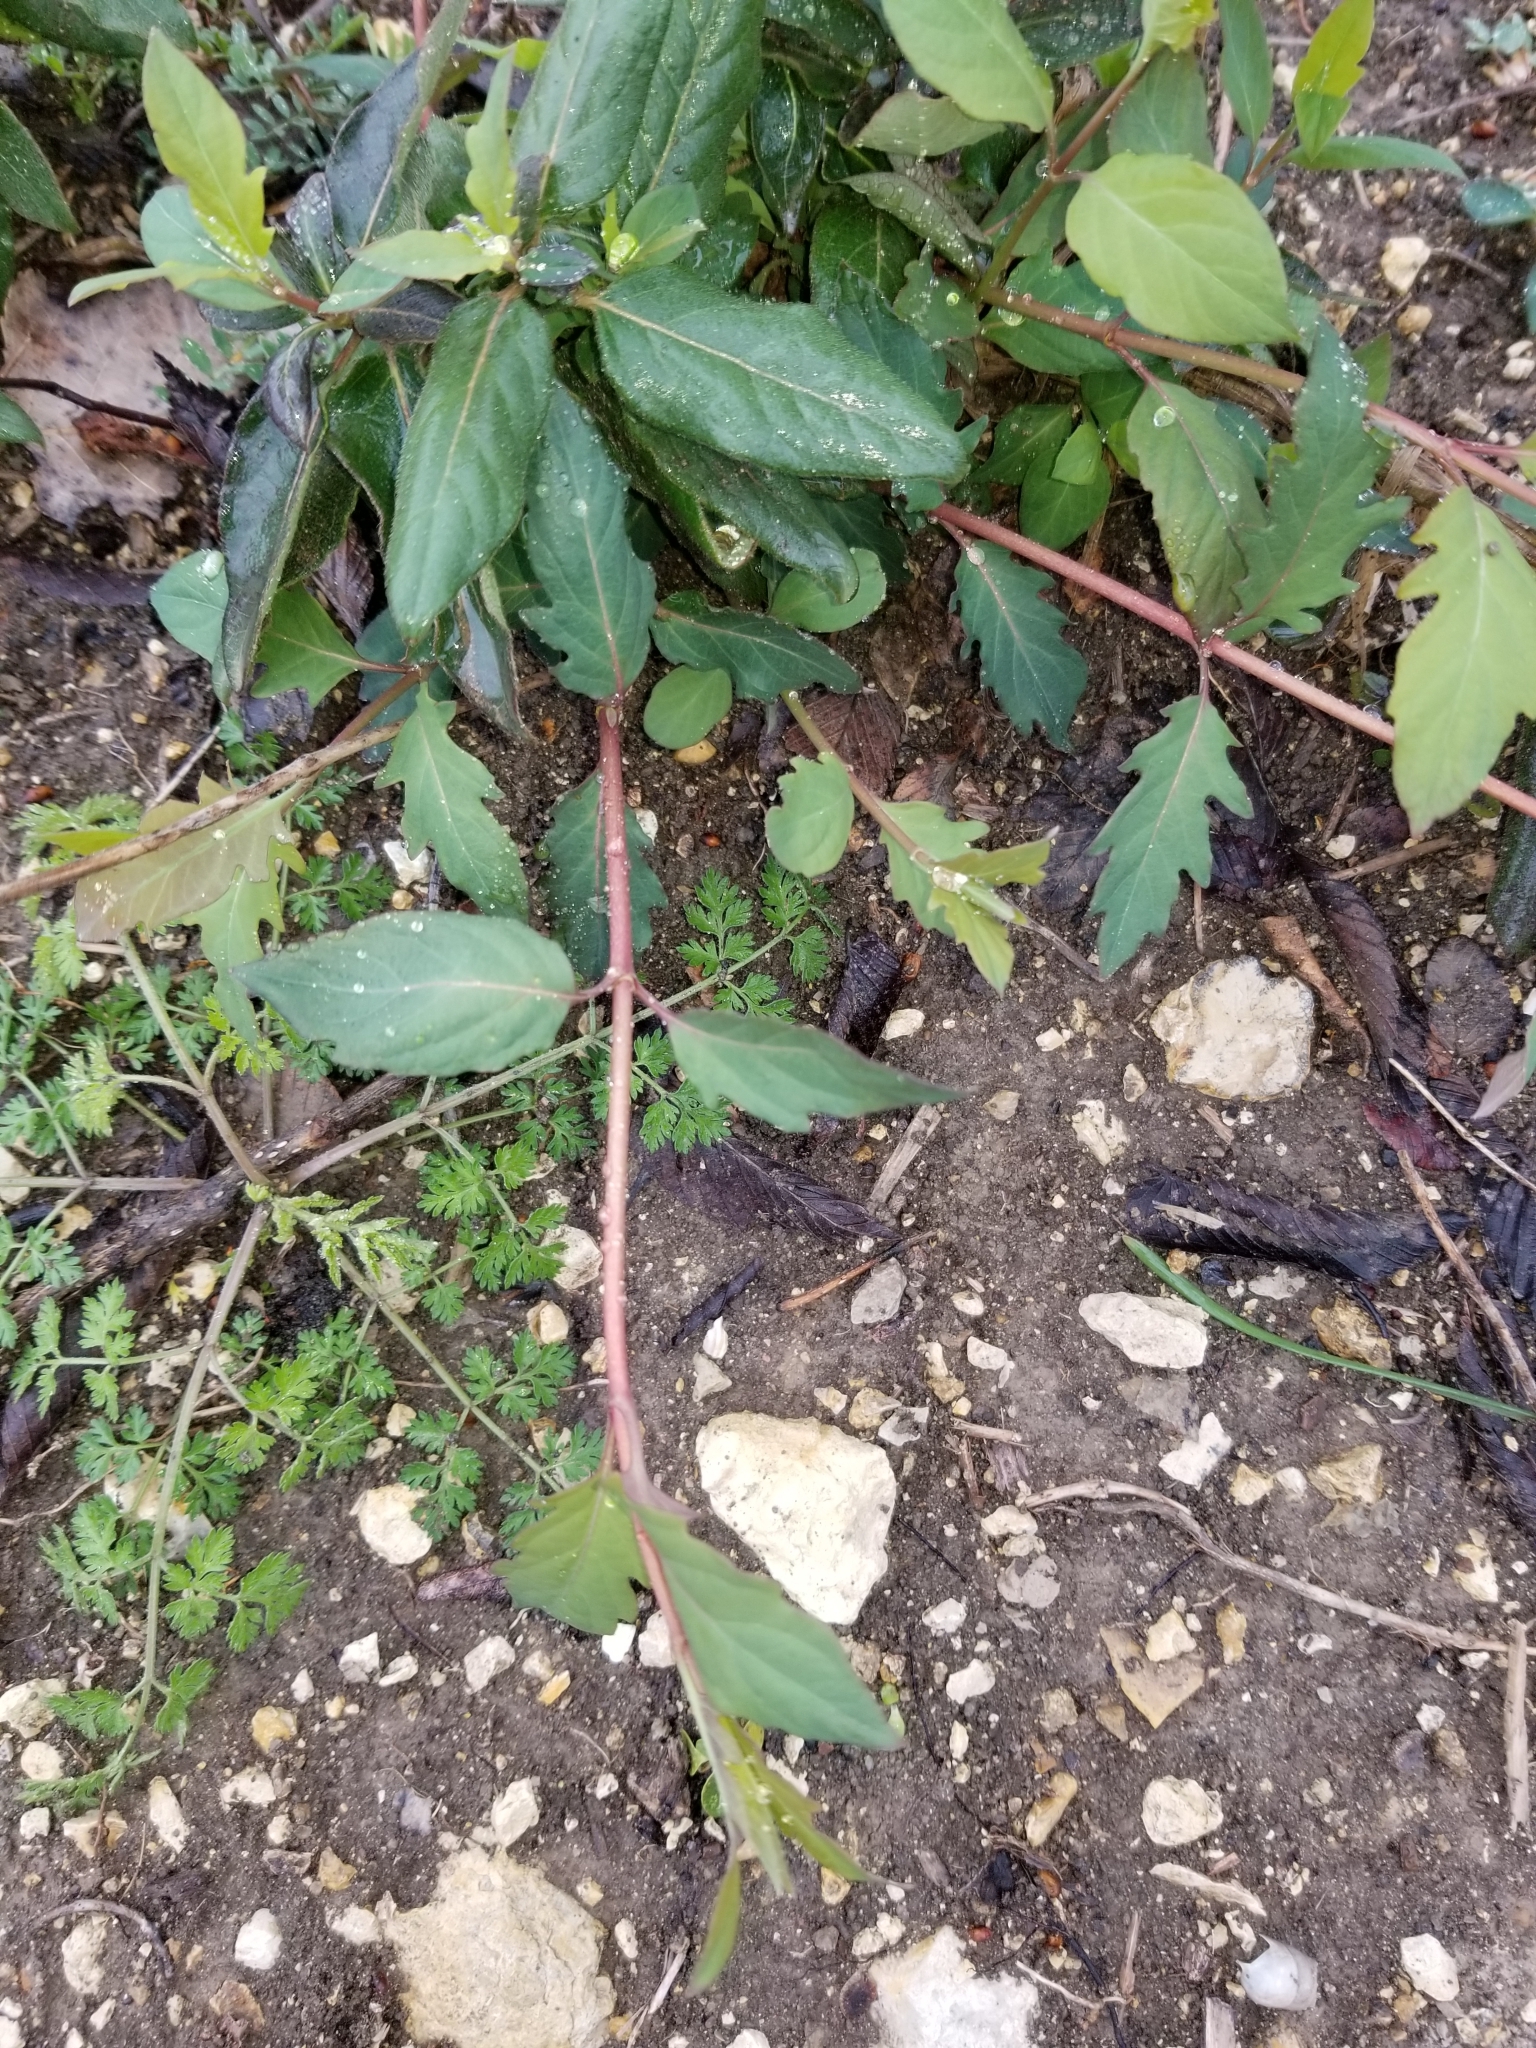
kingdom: Plantae
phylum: Tracheophyta
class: Magnoliopsida
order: Dipsacales
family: Caprifoliaceae
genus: Lonicera
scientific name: Lonicera japonica
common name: Japanese honeysuckle
